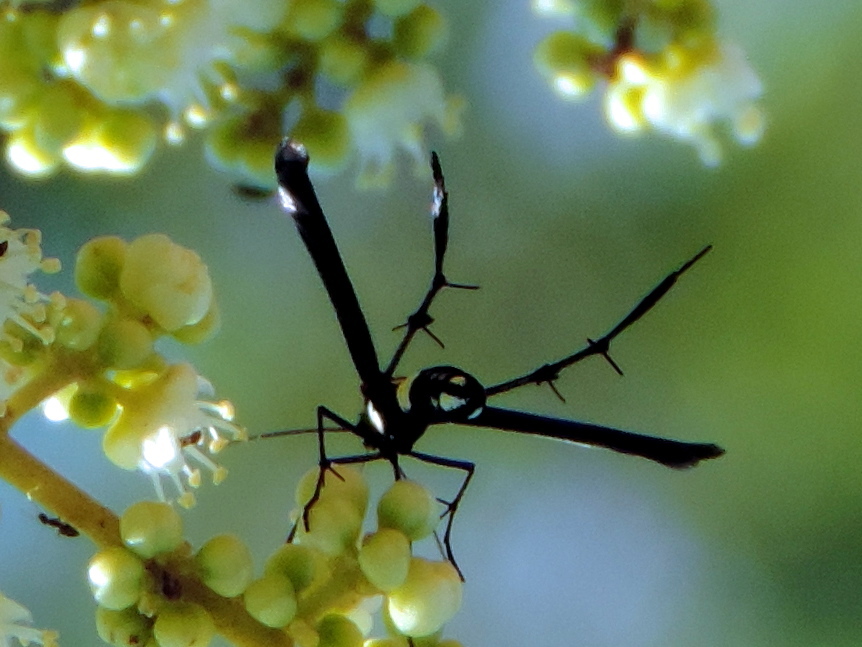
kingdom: Animalia
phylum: Arthropoda
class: Insecta
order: Lepidoptera
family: Pterophoridae
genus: Hellinsia
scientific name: Hellinsia chamelai
